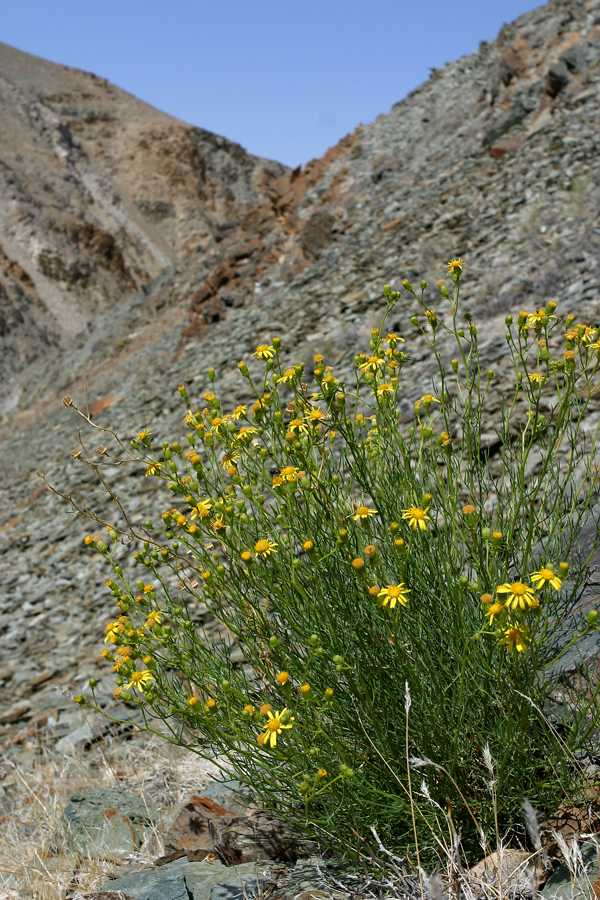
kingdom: Plantae
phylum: Tracheophyta
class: Magnoliopsida
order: Asterales
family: Asteraceae
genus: Senecio
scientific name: Senecio flaccidus
